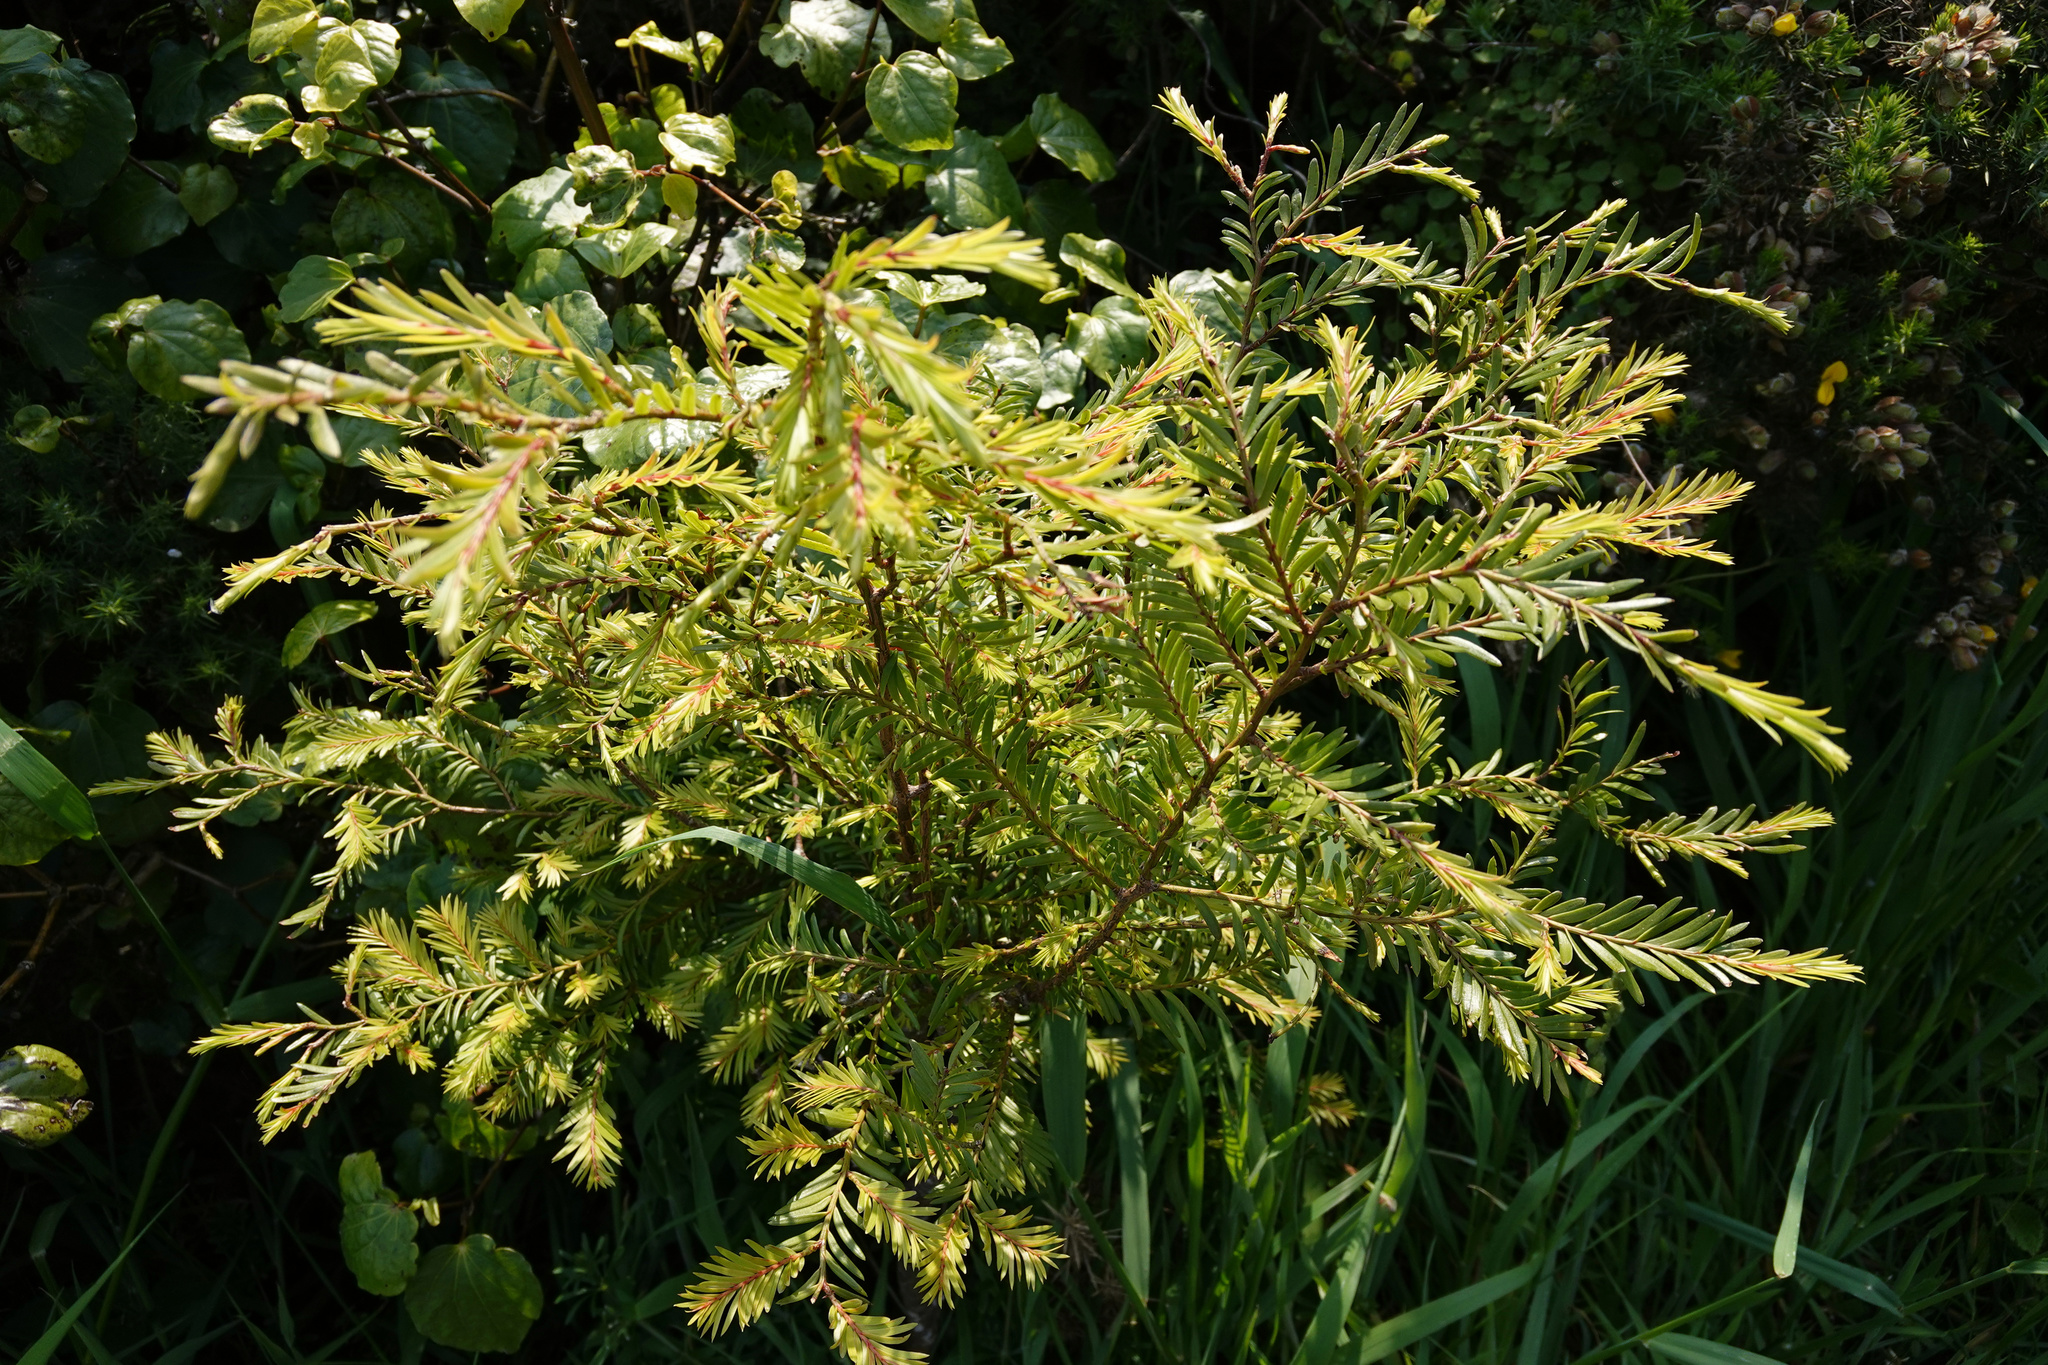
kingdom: Plantae
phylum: Tracheophyta
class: Pinopsida
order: Pinales
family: Podocarpaceae
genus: Prumnopitys
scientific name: Prumnopitys ferruginea
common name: Brown pine
